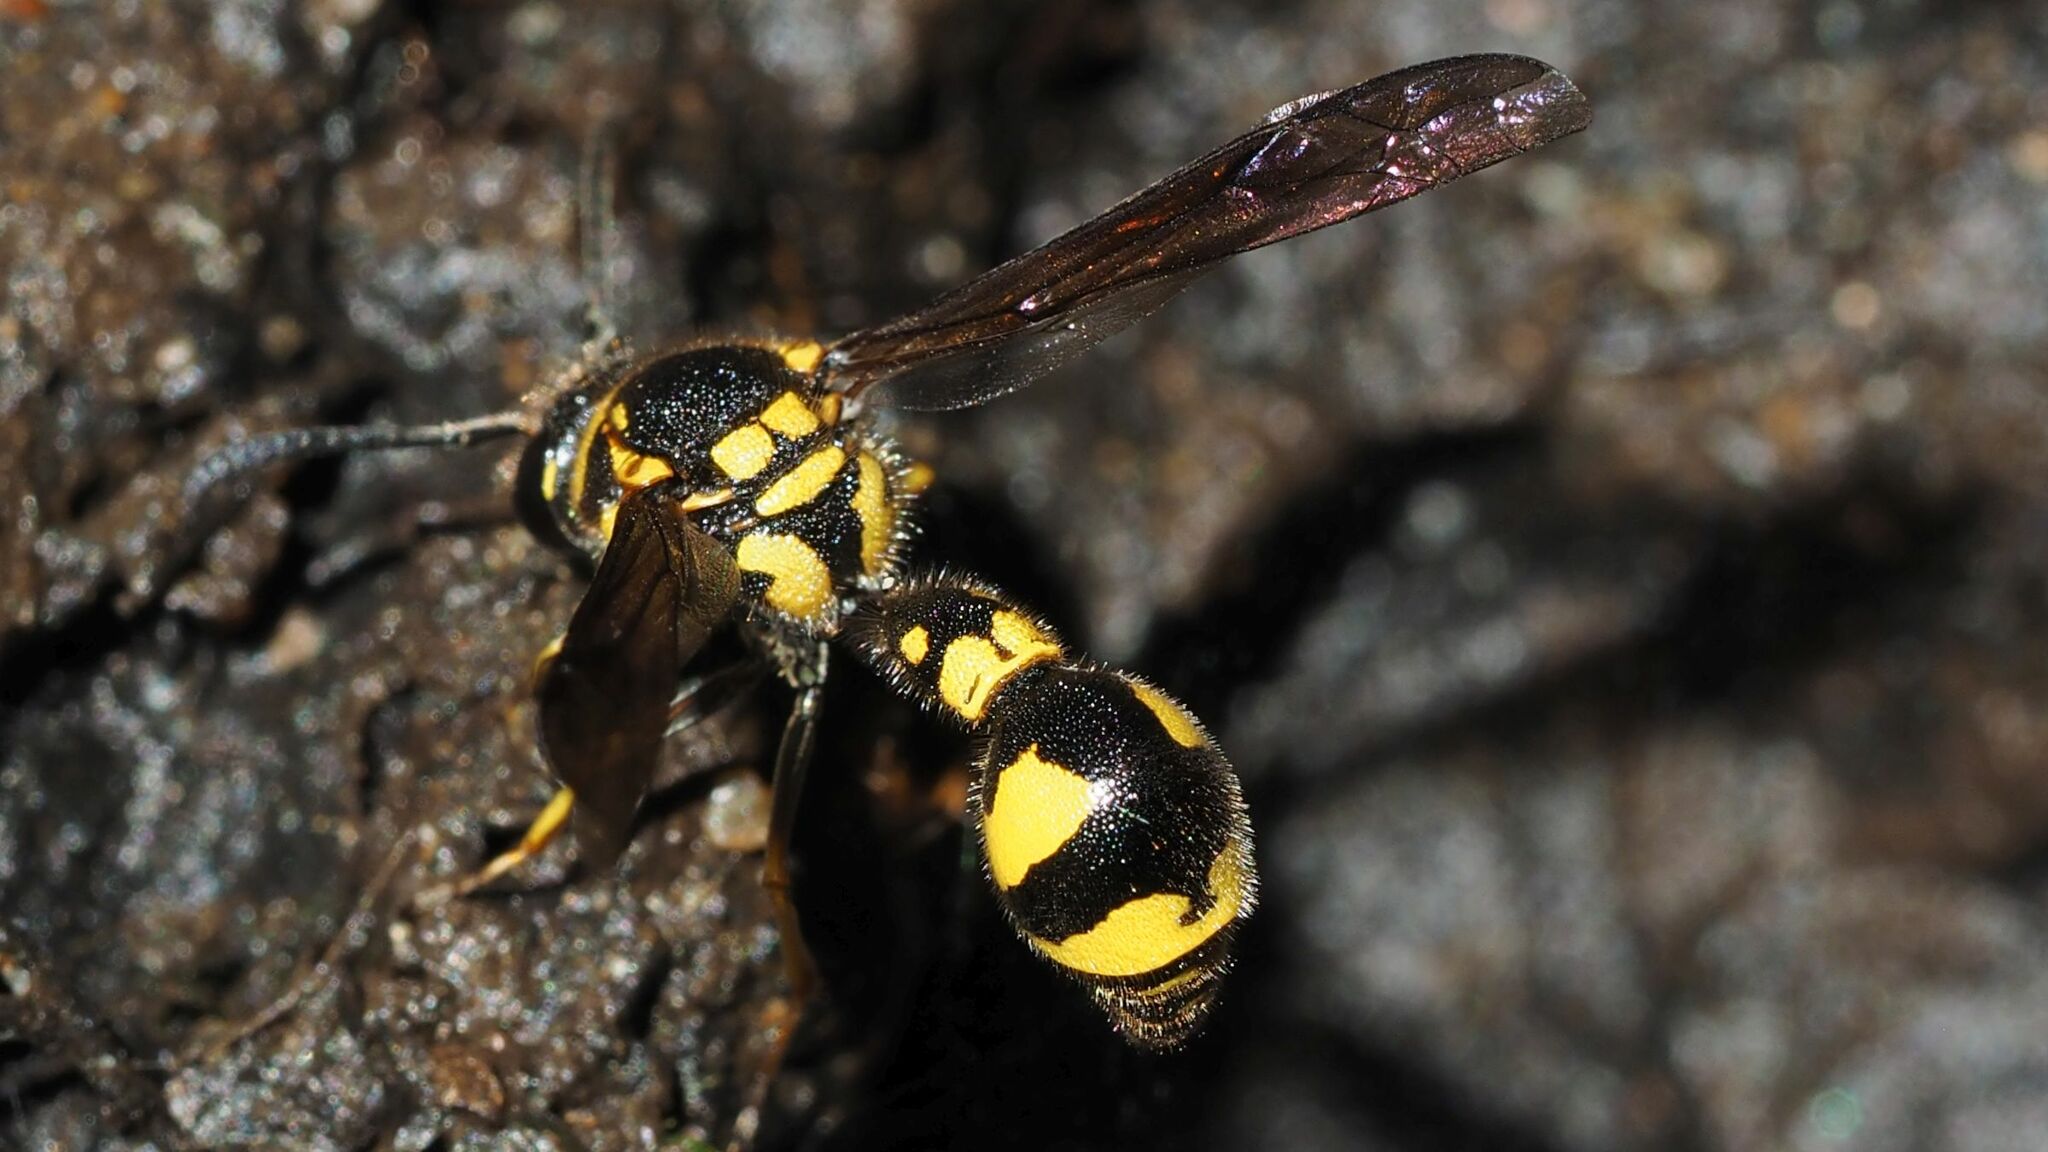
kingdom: Animalia
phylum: Arthropoda
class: Insecta
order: Hymenoptera
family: Vespidae
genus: Eumenes
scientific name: Eumenes coronatus
